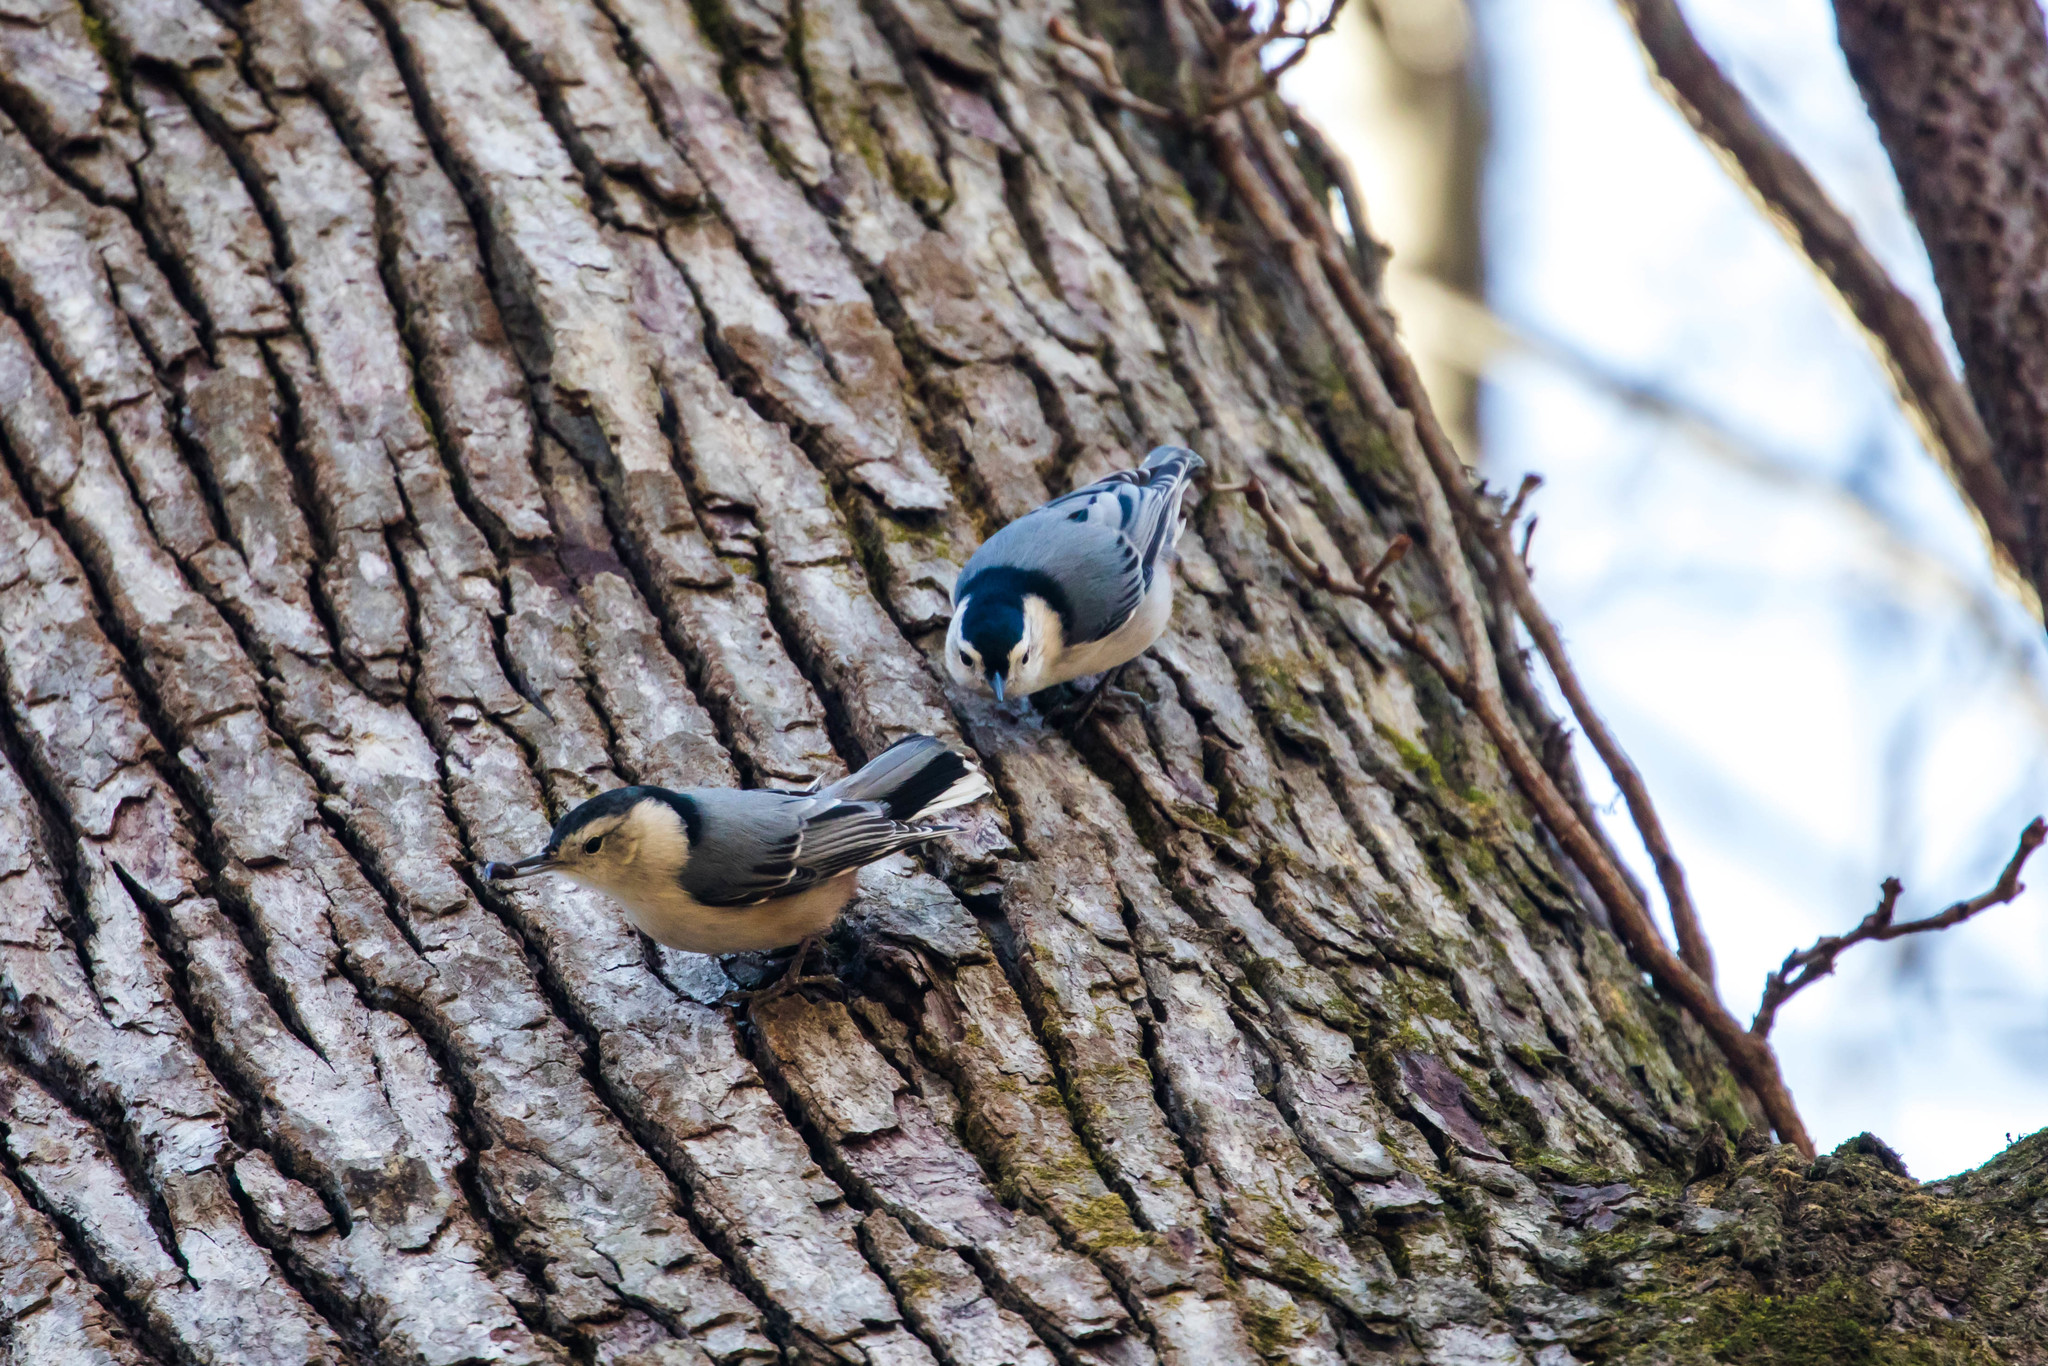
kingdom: Animalia
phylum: Chordata
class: Aves
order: Passeriformes
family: Sittidae
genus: Sitta
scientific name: Sitta carolinensis
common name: White-breasted nuthatch
